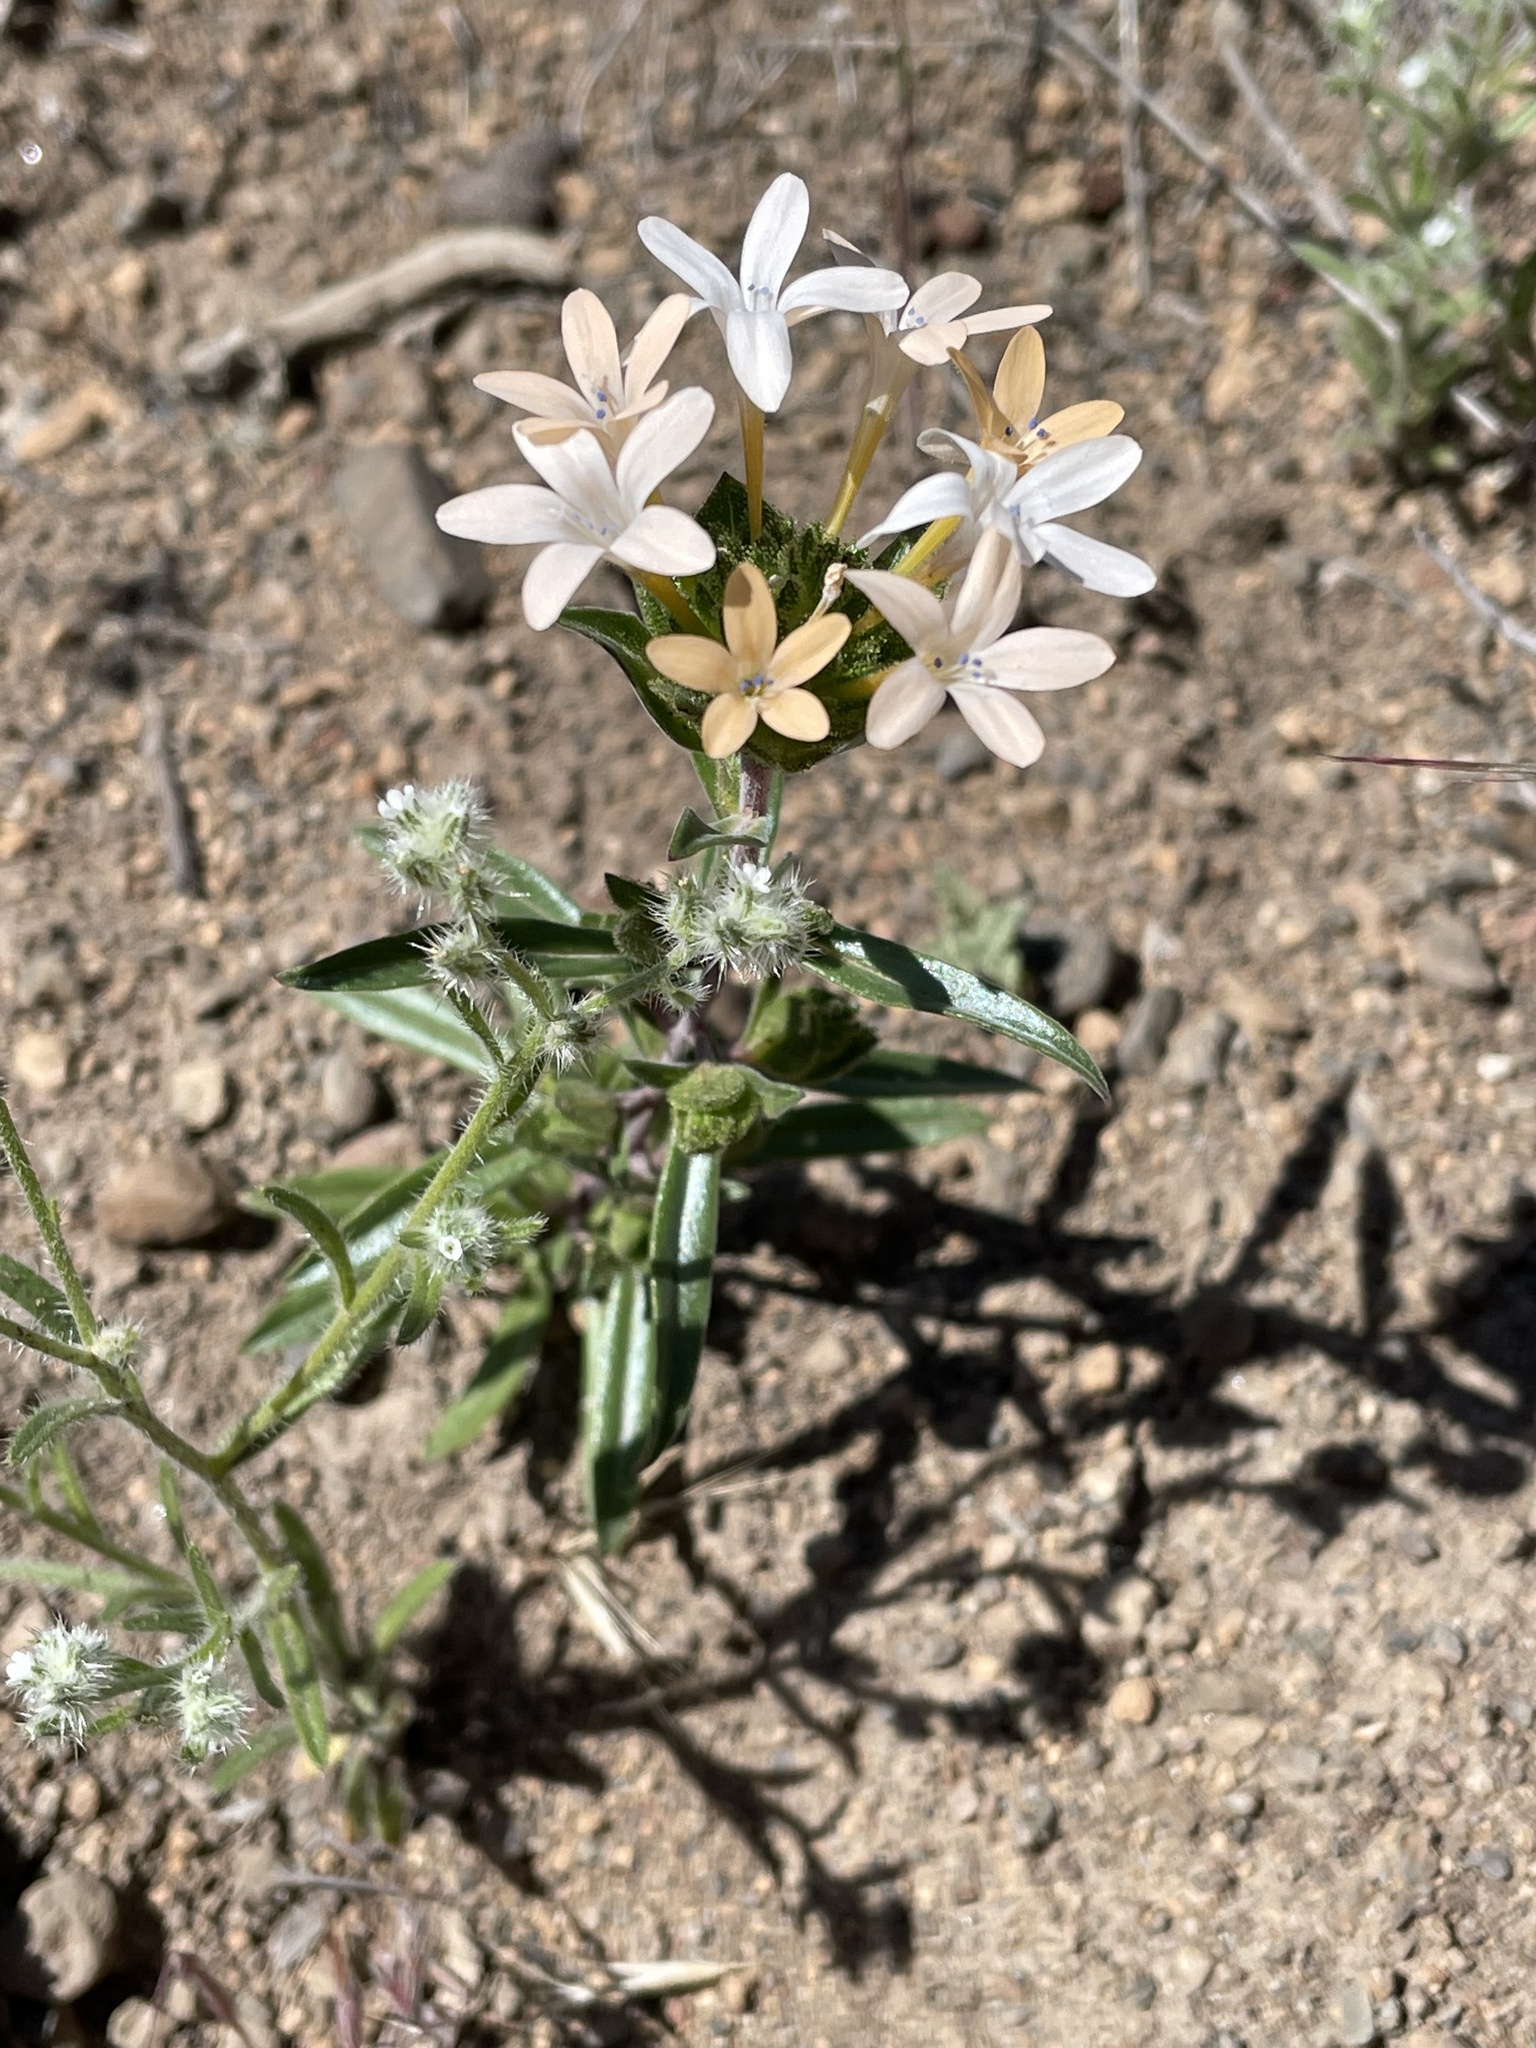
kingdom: Plantae
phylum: Tracheophyta
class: Magnoliopsida
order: Ericales
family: Polemoniaceae
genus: Collomia
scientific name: Collomia grandiflora
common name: California strawflower
